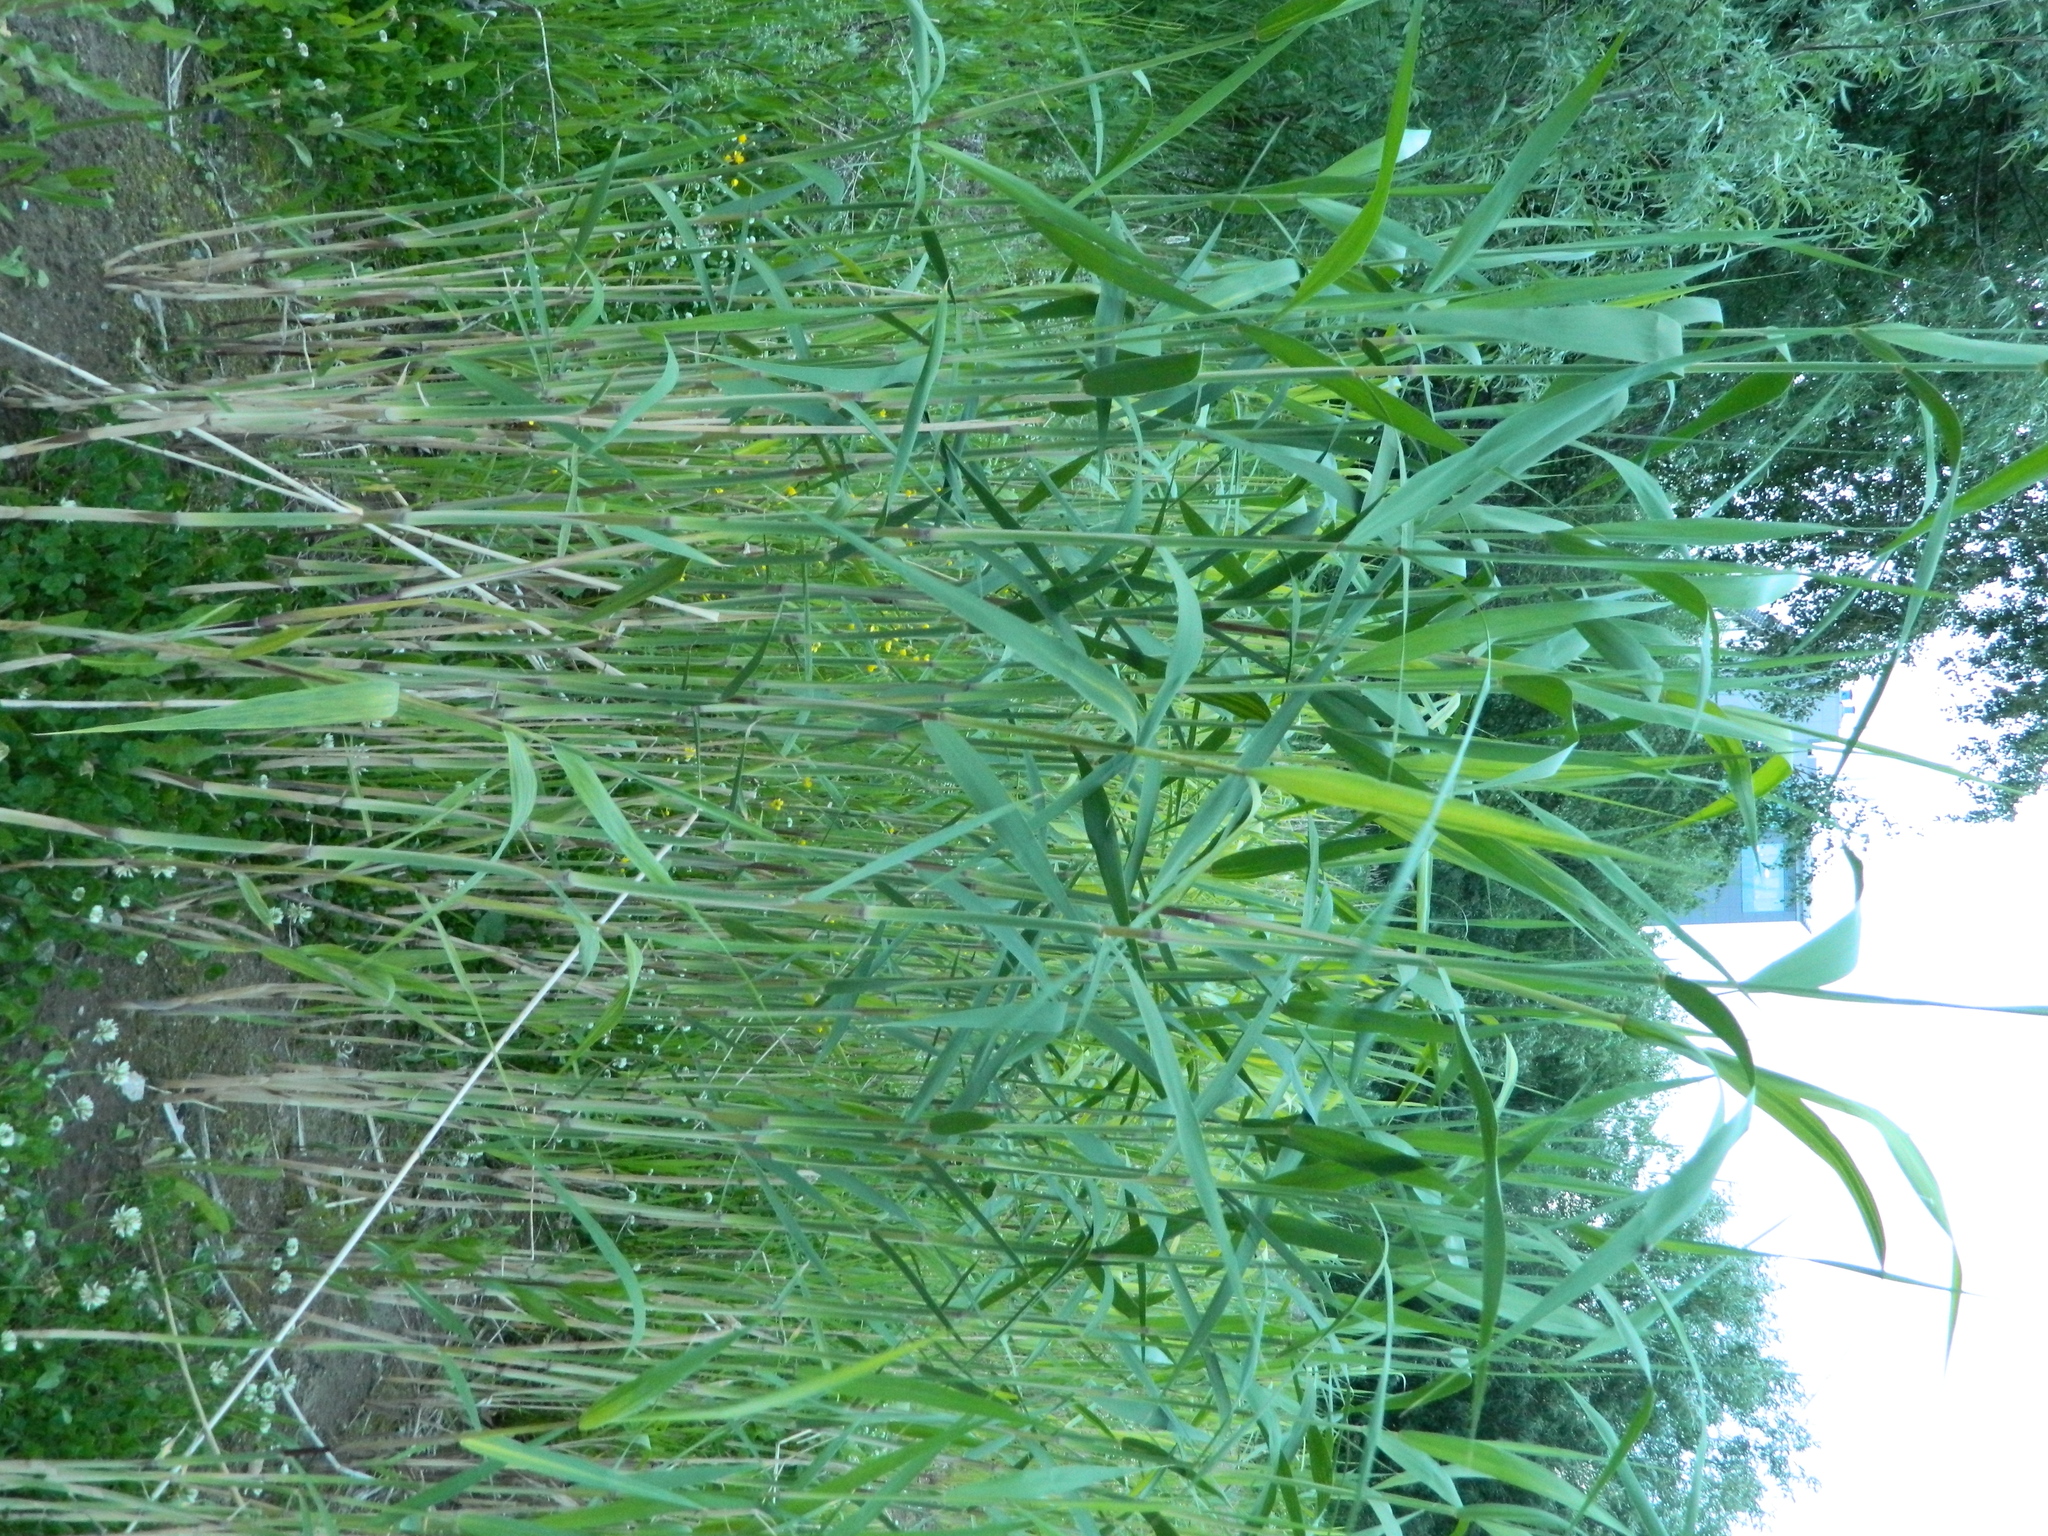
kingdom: Plantae
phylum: Tracheophyta
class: Liliopsida
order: Poales
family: Poaceae
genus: Phragmites
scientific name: Phragmites australis
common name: Common reed
